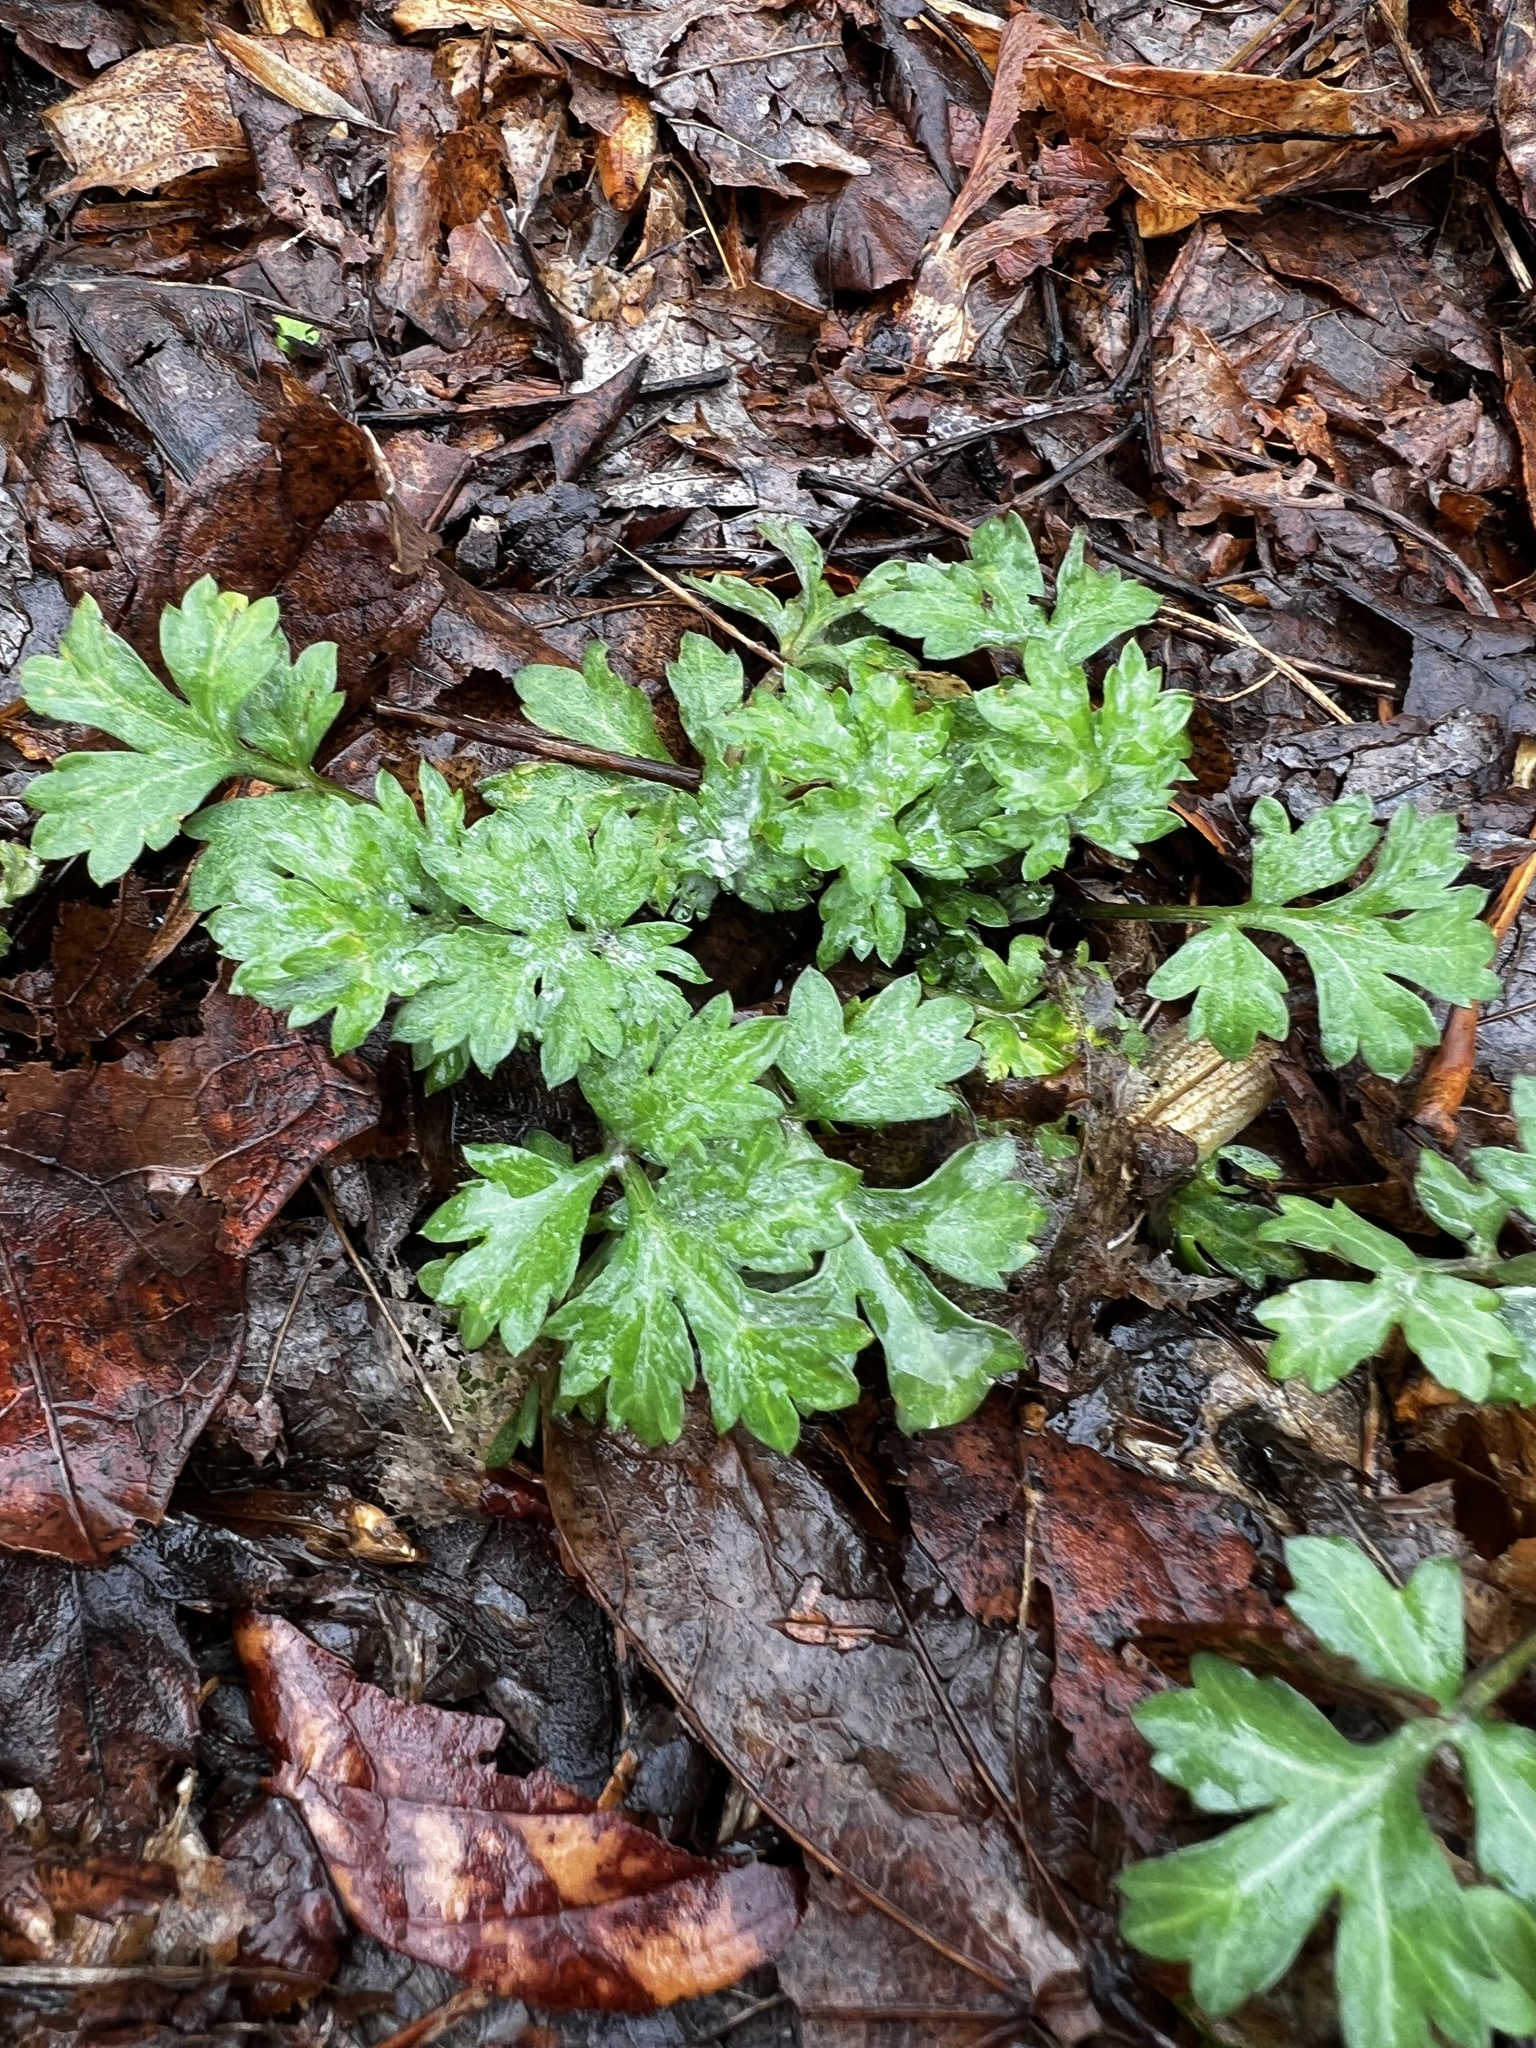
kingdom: Plantae
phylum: Tracheophyta
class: Magnoliopsida
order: Asterales
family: Asteraceae
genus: Artemisia
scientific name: Artemisia vulgaris
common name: Mugwort
